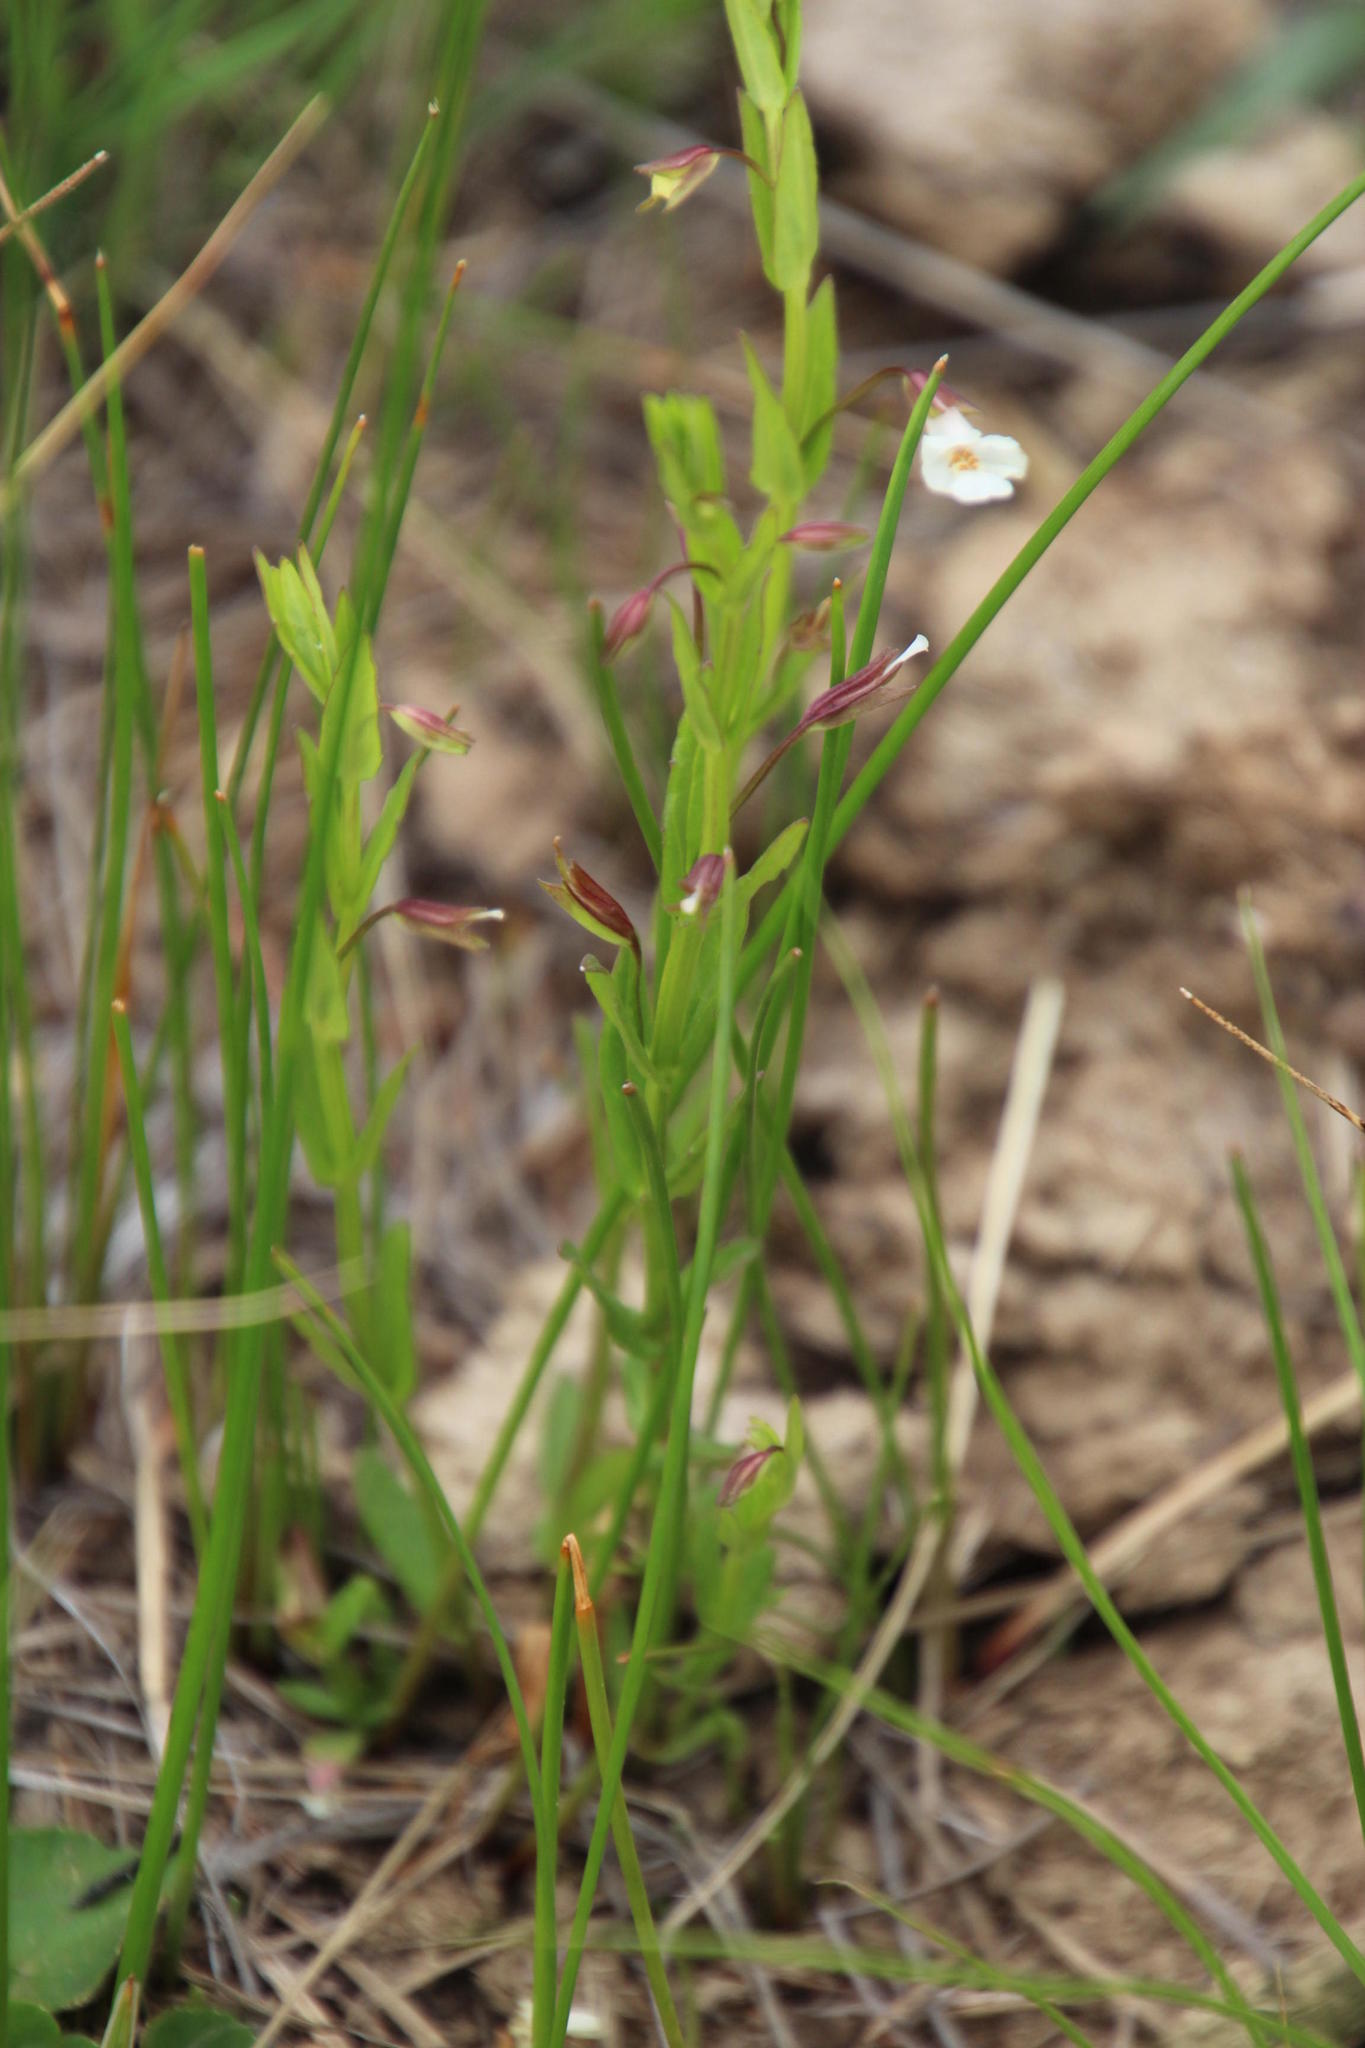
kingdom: Plantae
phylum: Tracheophyta
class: Magnoliopsida
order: Lamiales
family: Phrymaceae
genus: Mimulus
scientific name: Mimulus gracilis
